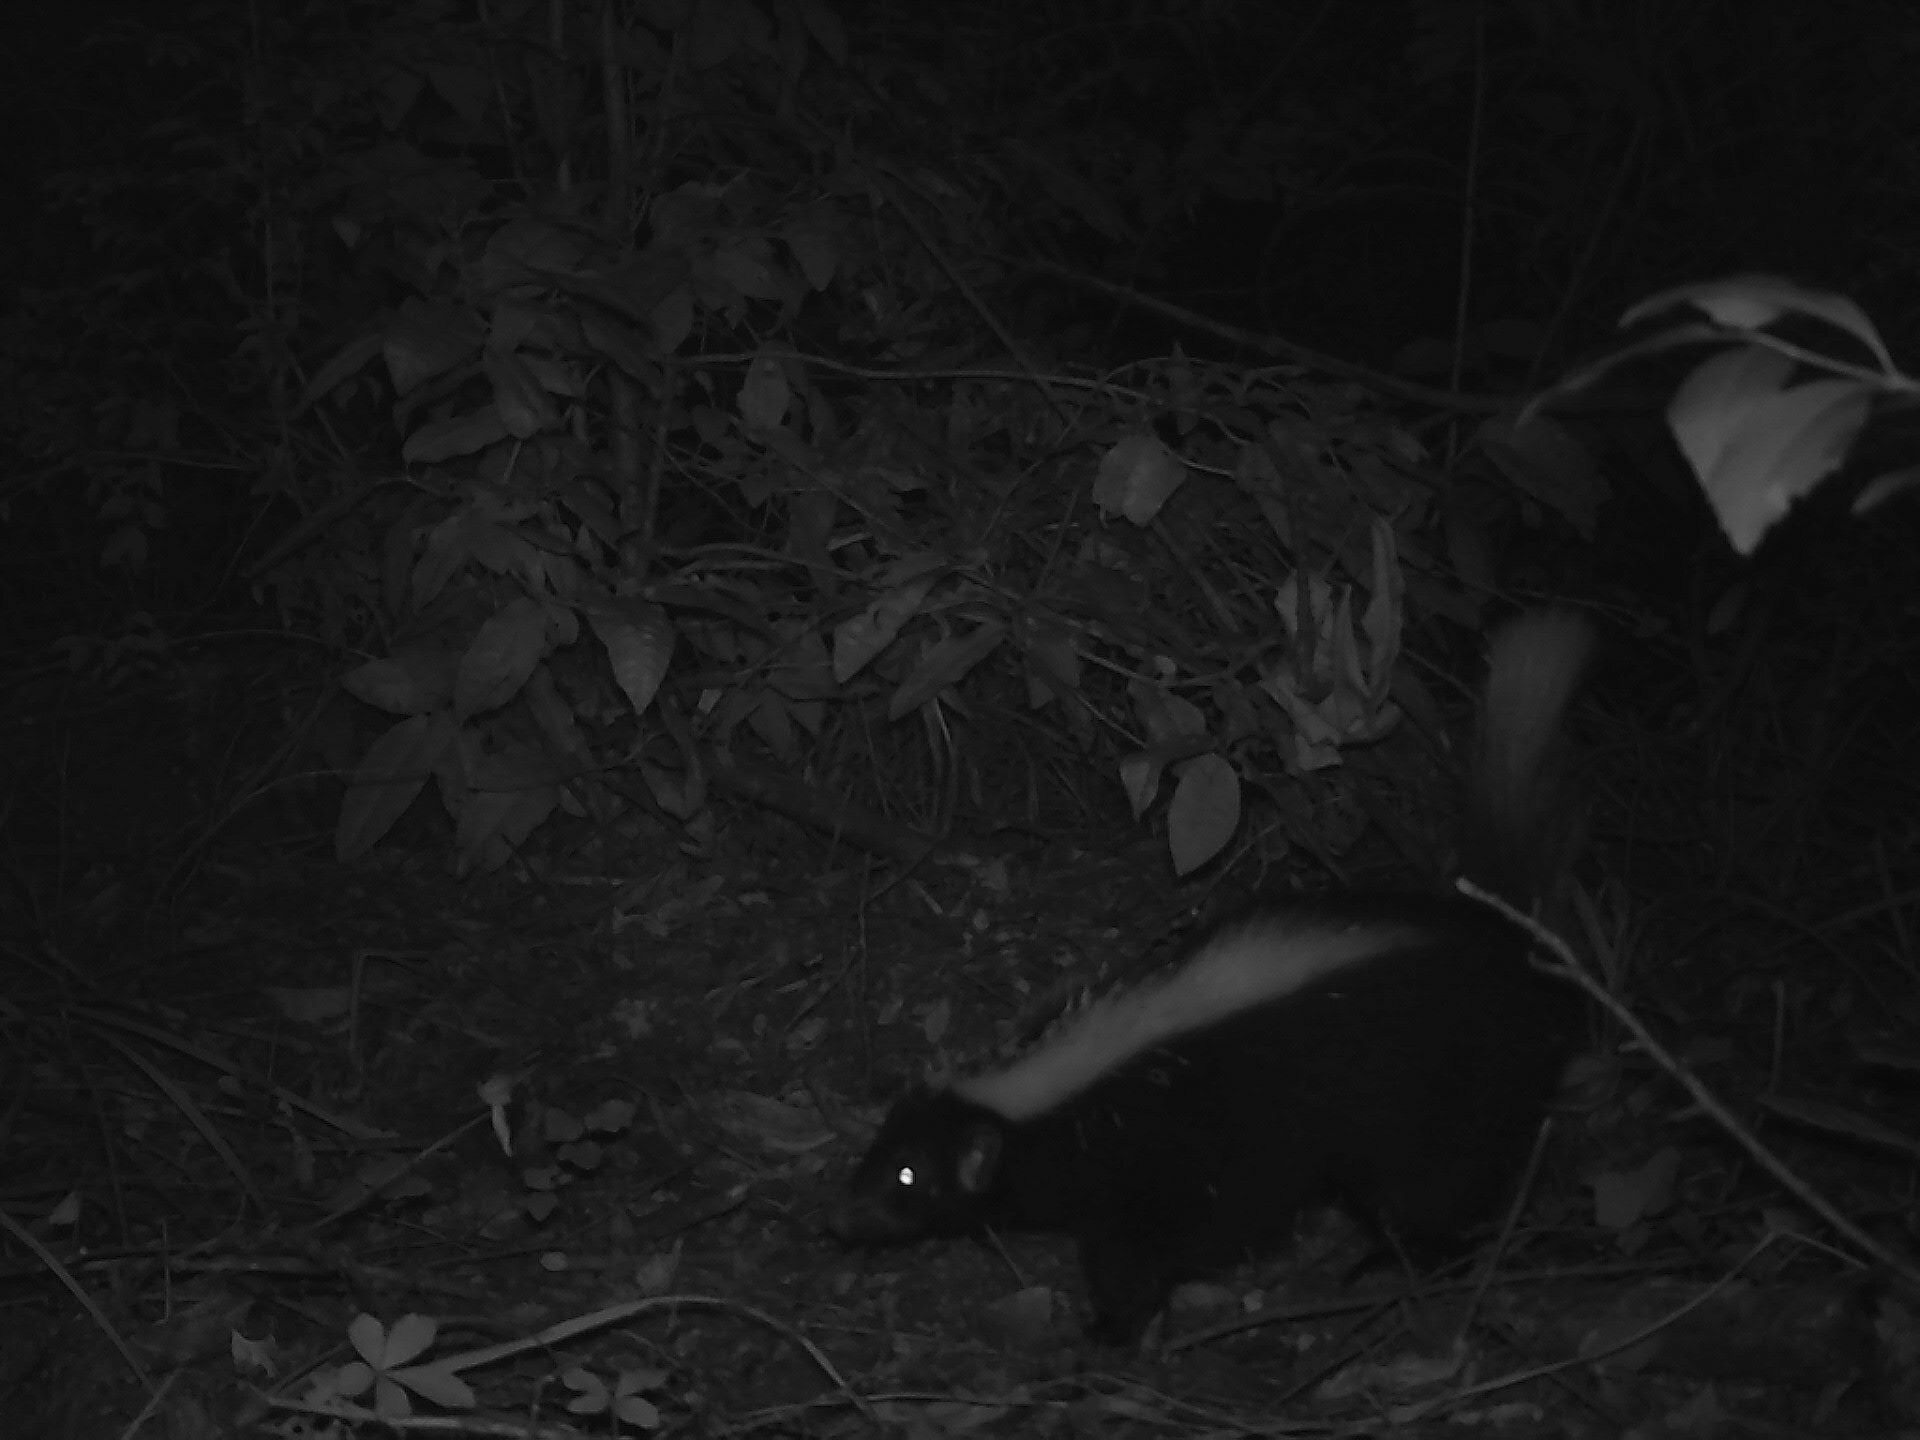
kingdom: Animalia
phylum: Chordata
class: Mammalia
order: Carnivora
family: Mephitidae
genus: Conepatus
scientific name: Conepatus chinga
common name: Molina's hog-nosed skunk
